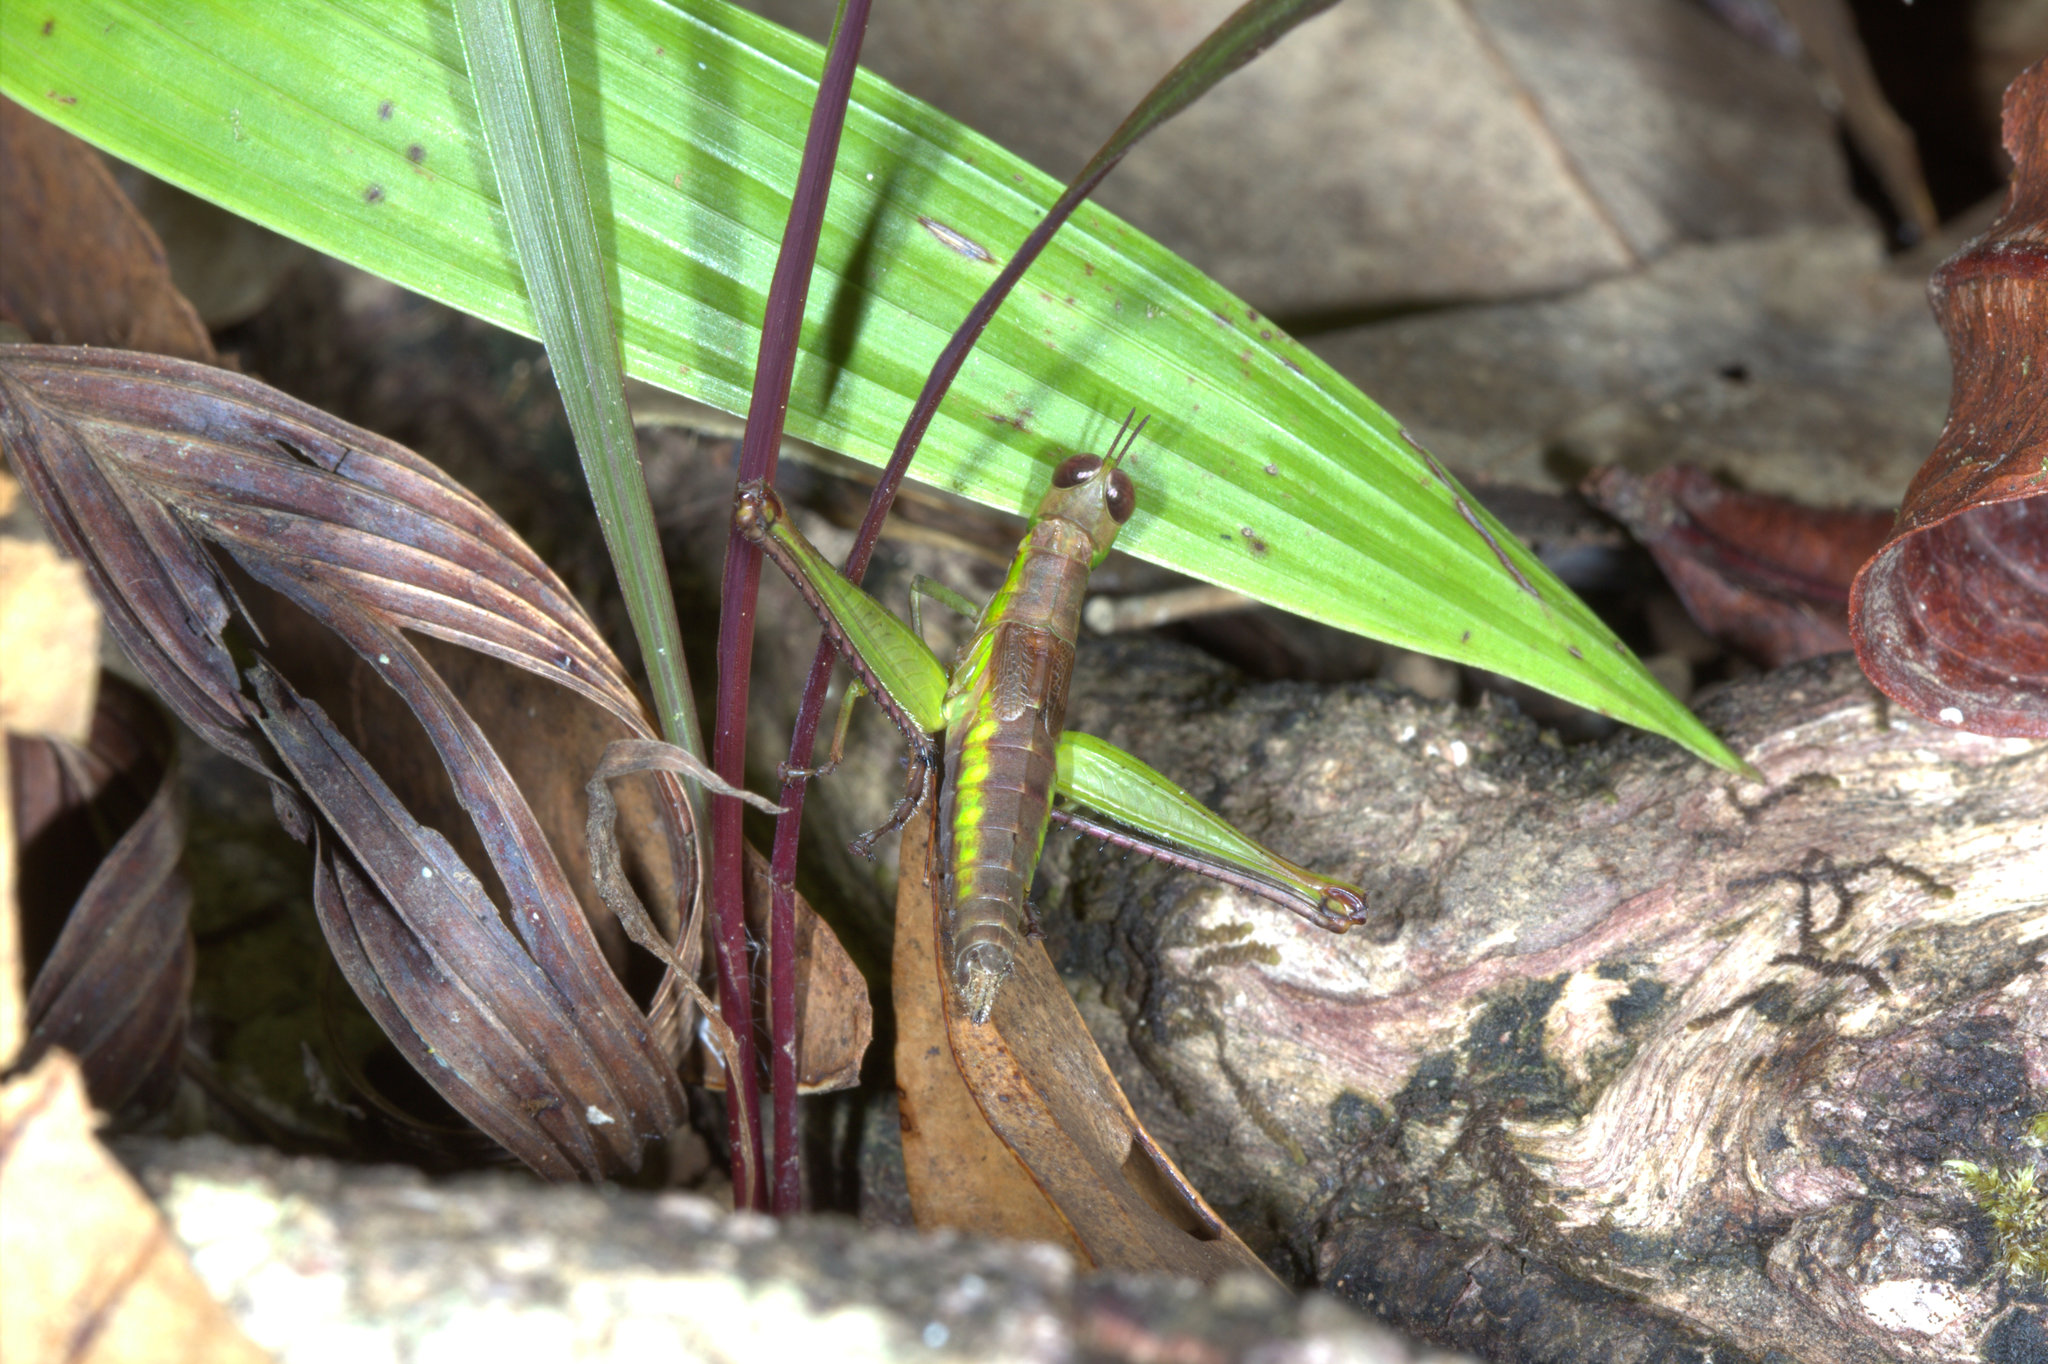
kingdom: Animalia
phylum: Arthropoda
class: Insecta
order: Orthoptera
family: Euschmidtiidae
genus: Euschmidtia
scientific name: Euschmidtia cruciformis
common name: Seychelles monkey grasshopper
